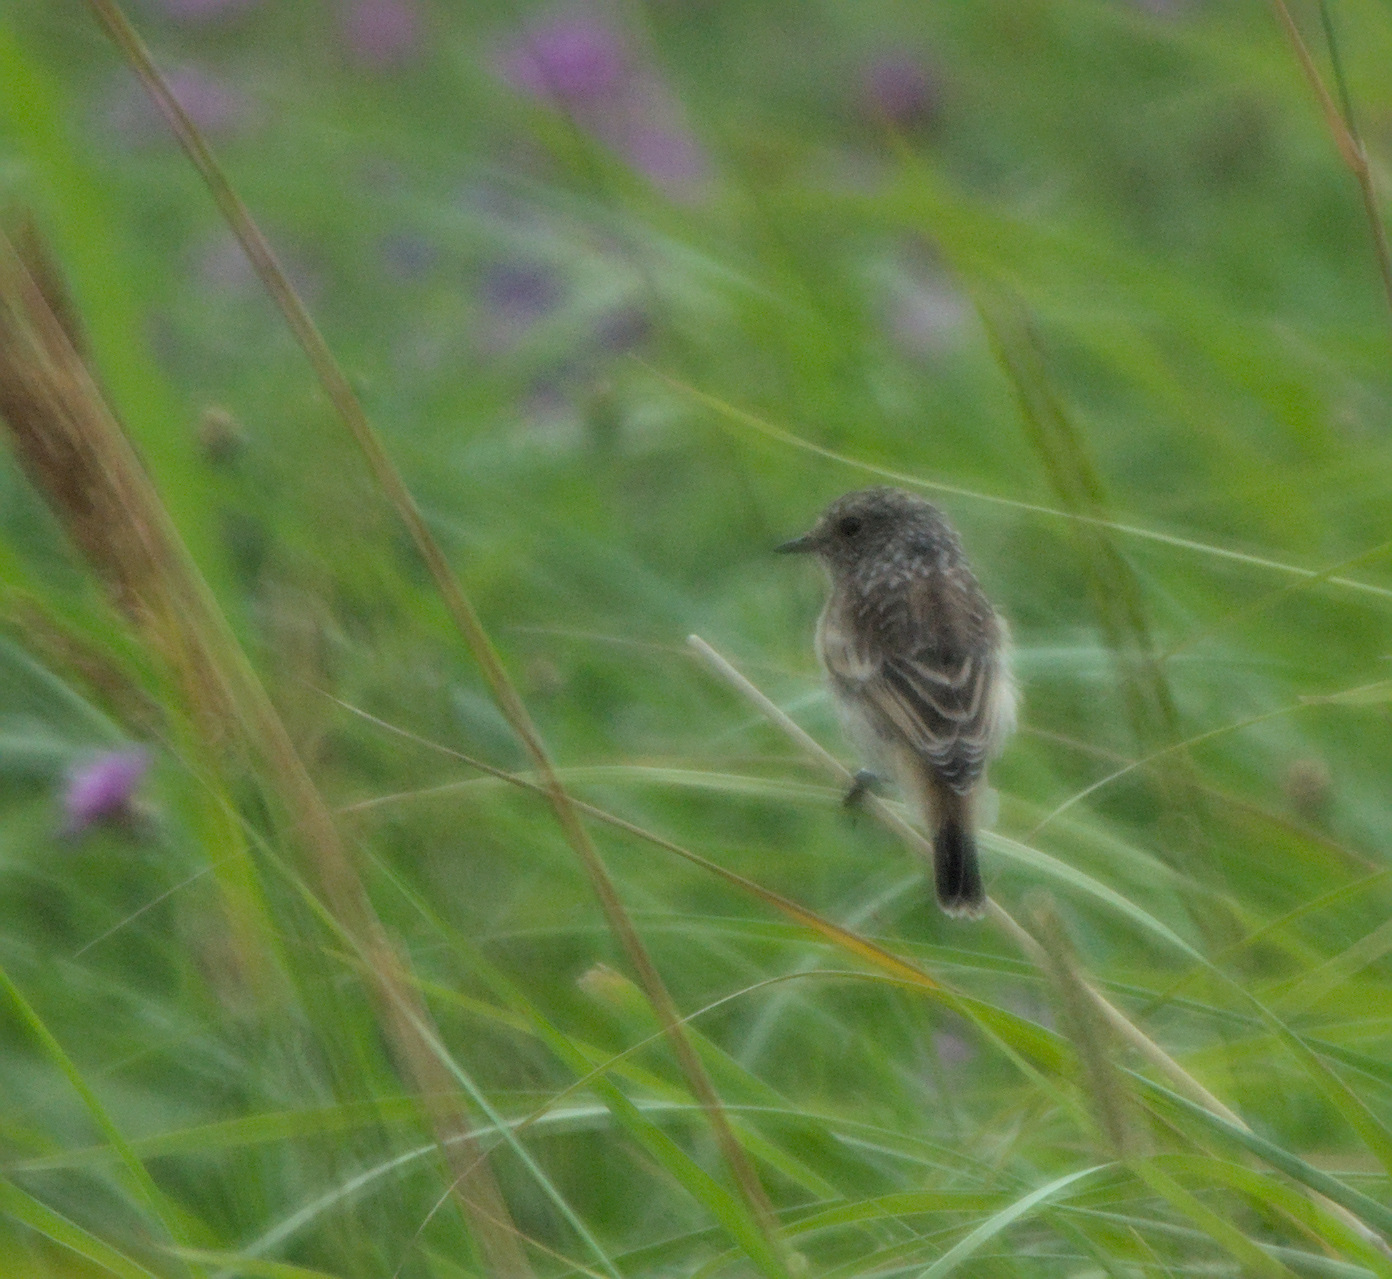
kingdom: Animalia
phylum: Chordata
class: Aves
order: Passeriformes
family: Muscicapidae
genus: Saxicola
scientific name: Saxicola maurus
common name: Siberian stonechat
